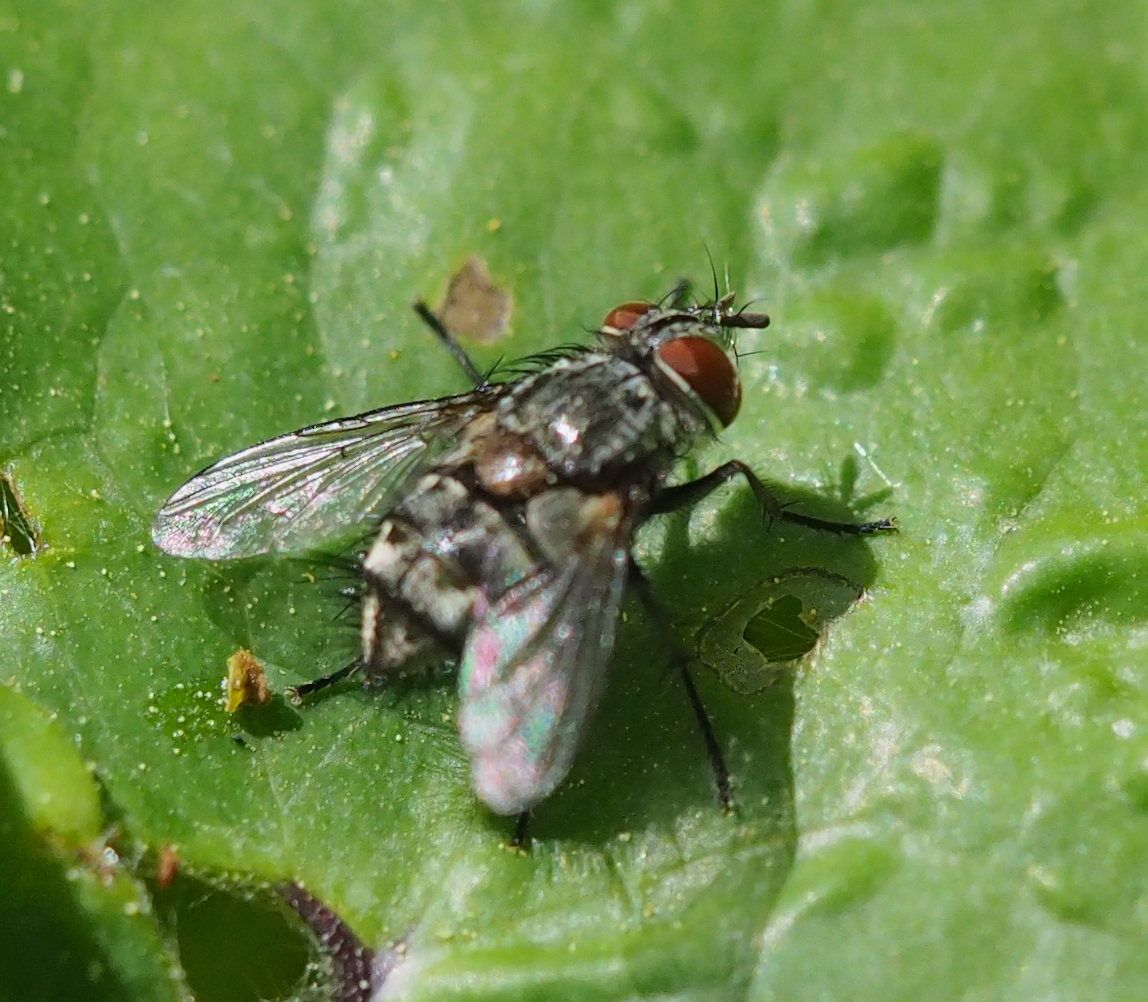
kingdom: Animalia
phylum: Arthropoda
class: Insecta
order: Diptera
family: Tachinidae
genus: Carcelia
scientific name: Carcelia iliaca
